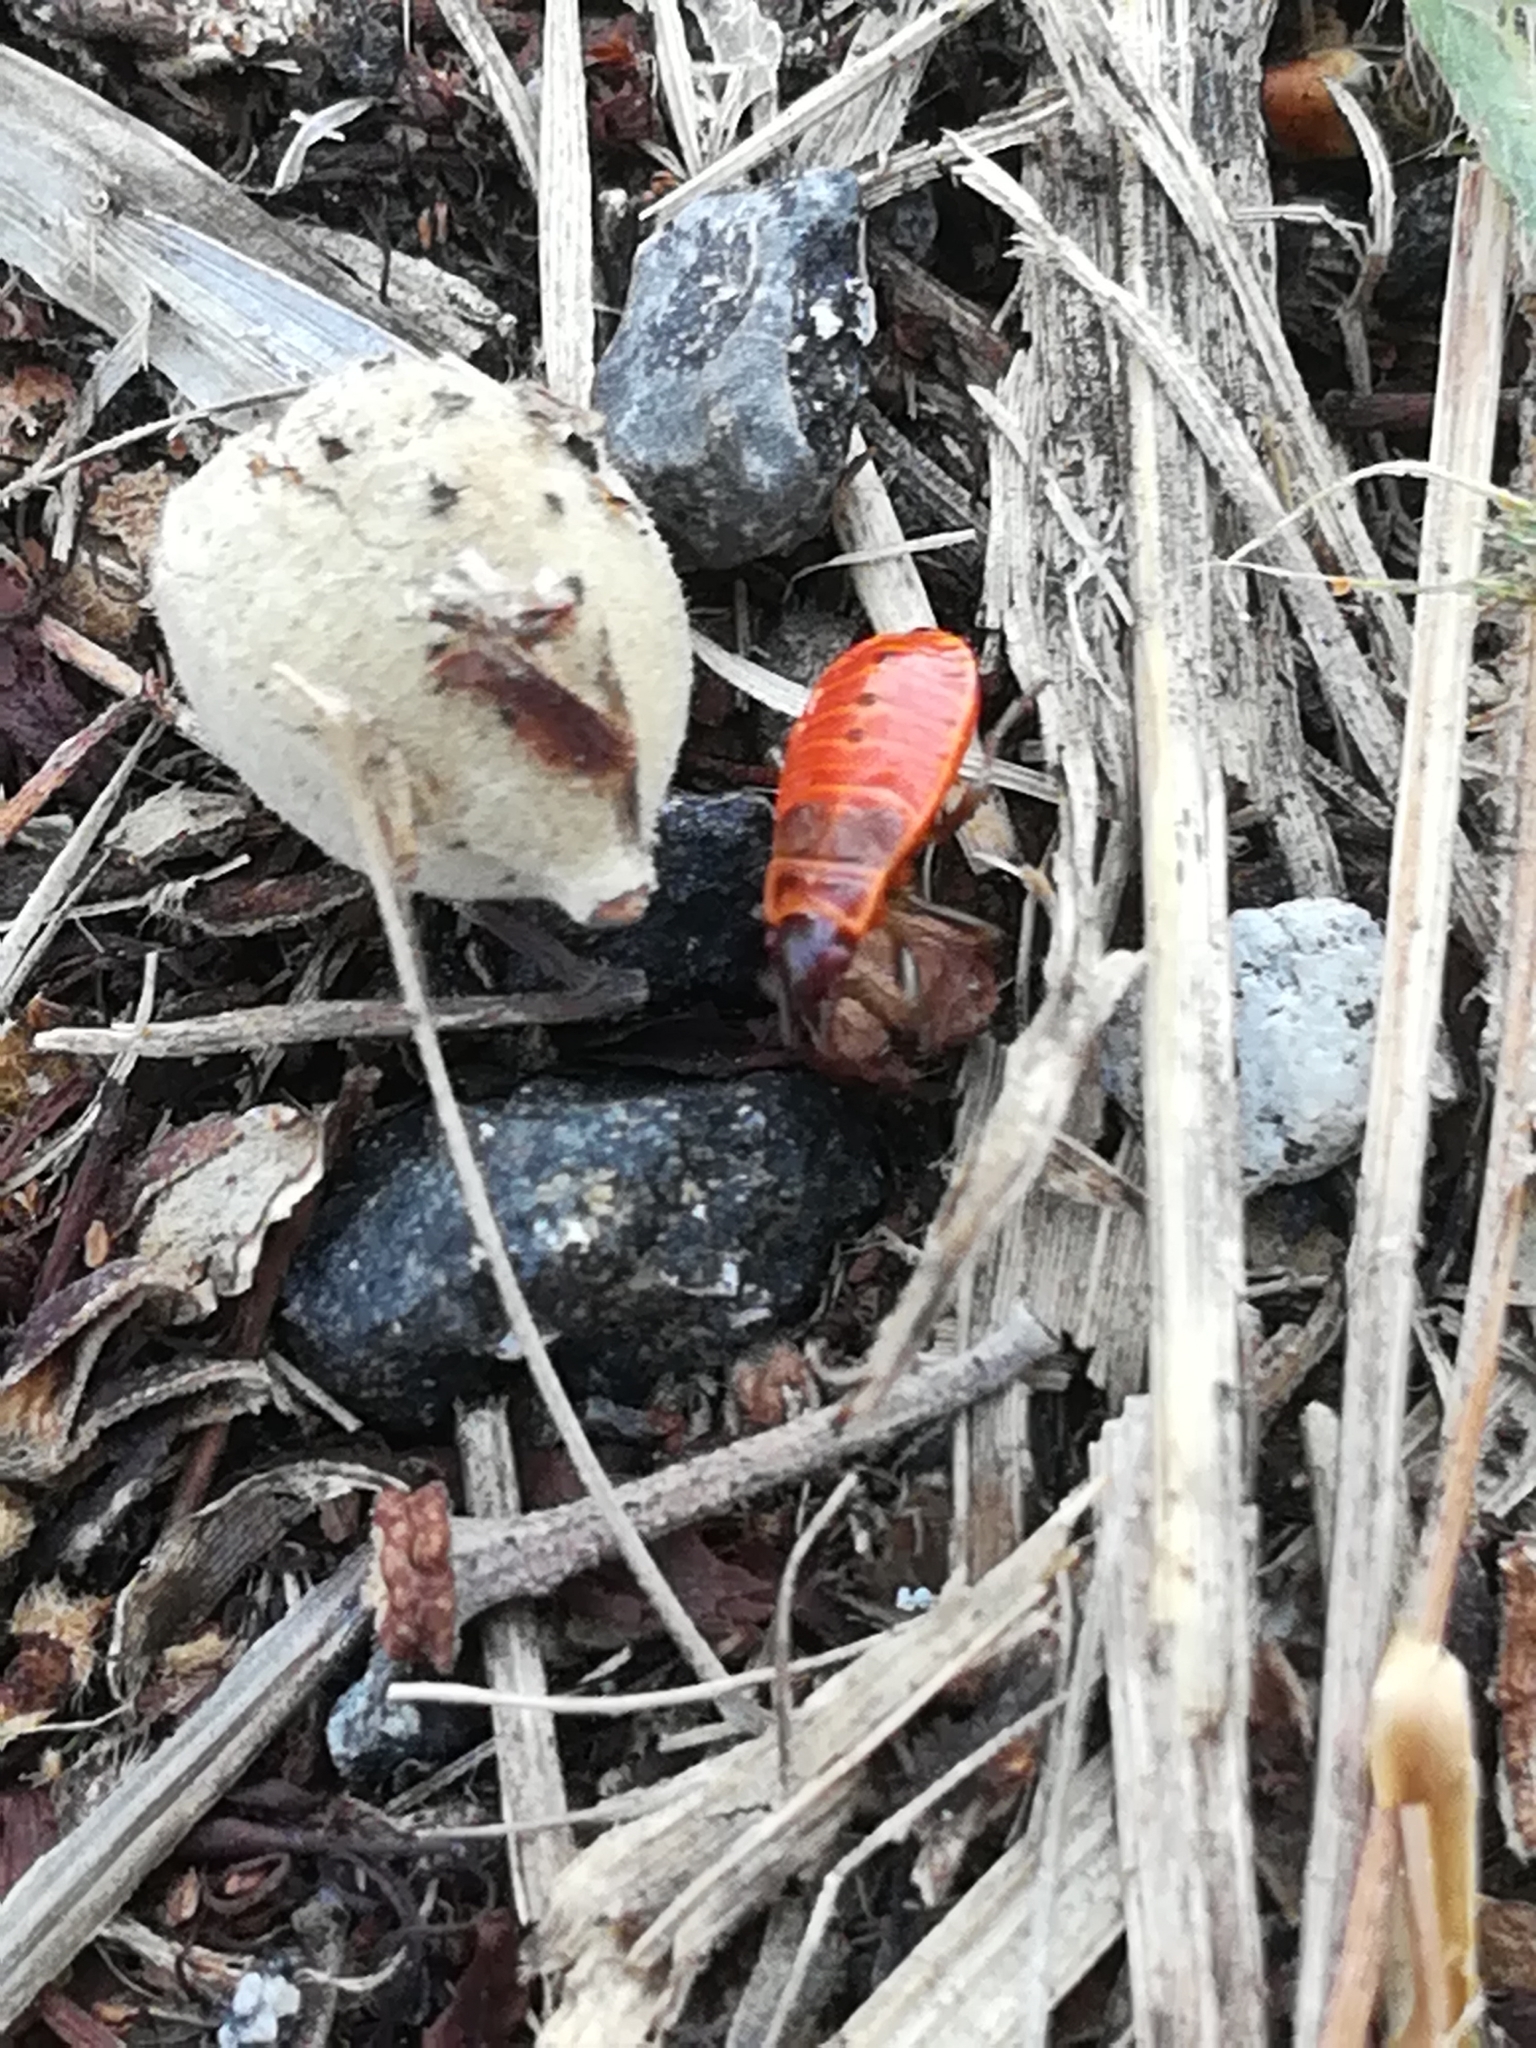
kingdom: Animalia
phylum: Arthropoda
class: Insecta
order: Hemiptera
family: Pyrrhocoridae
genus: Pyrrhocoris
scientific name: Pyrrhocoris apterus
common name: Firebug
